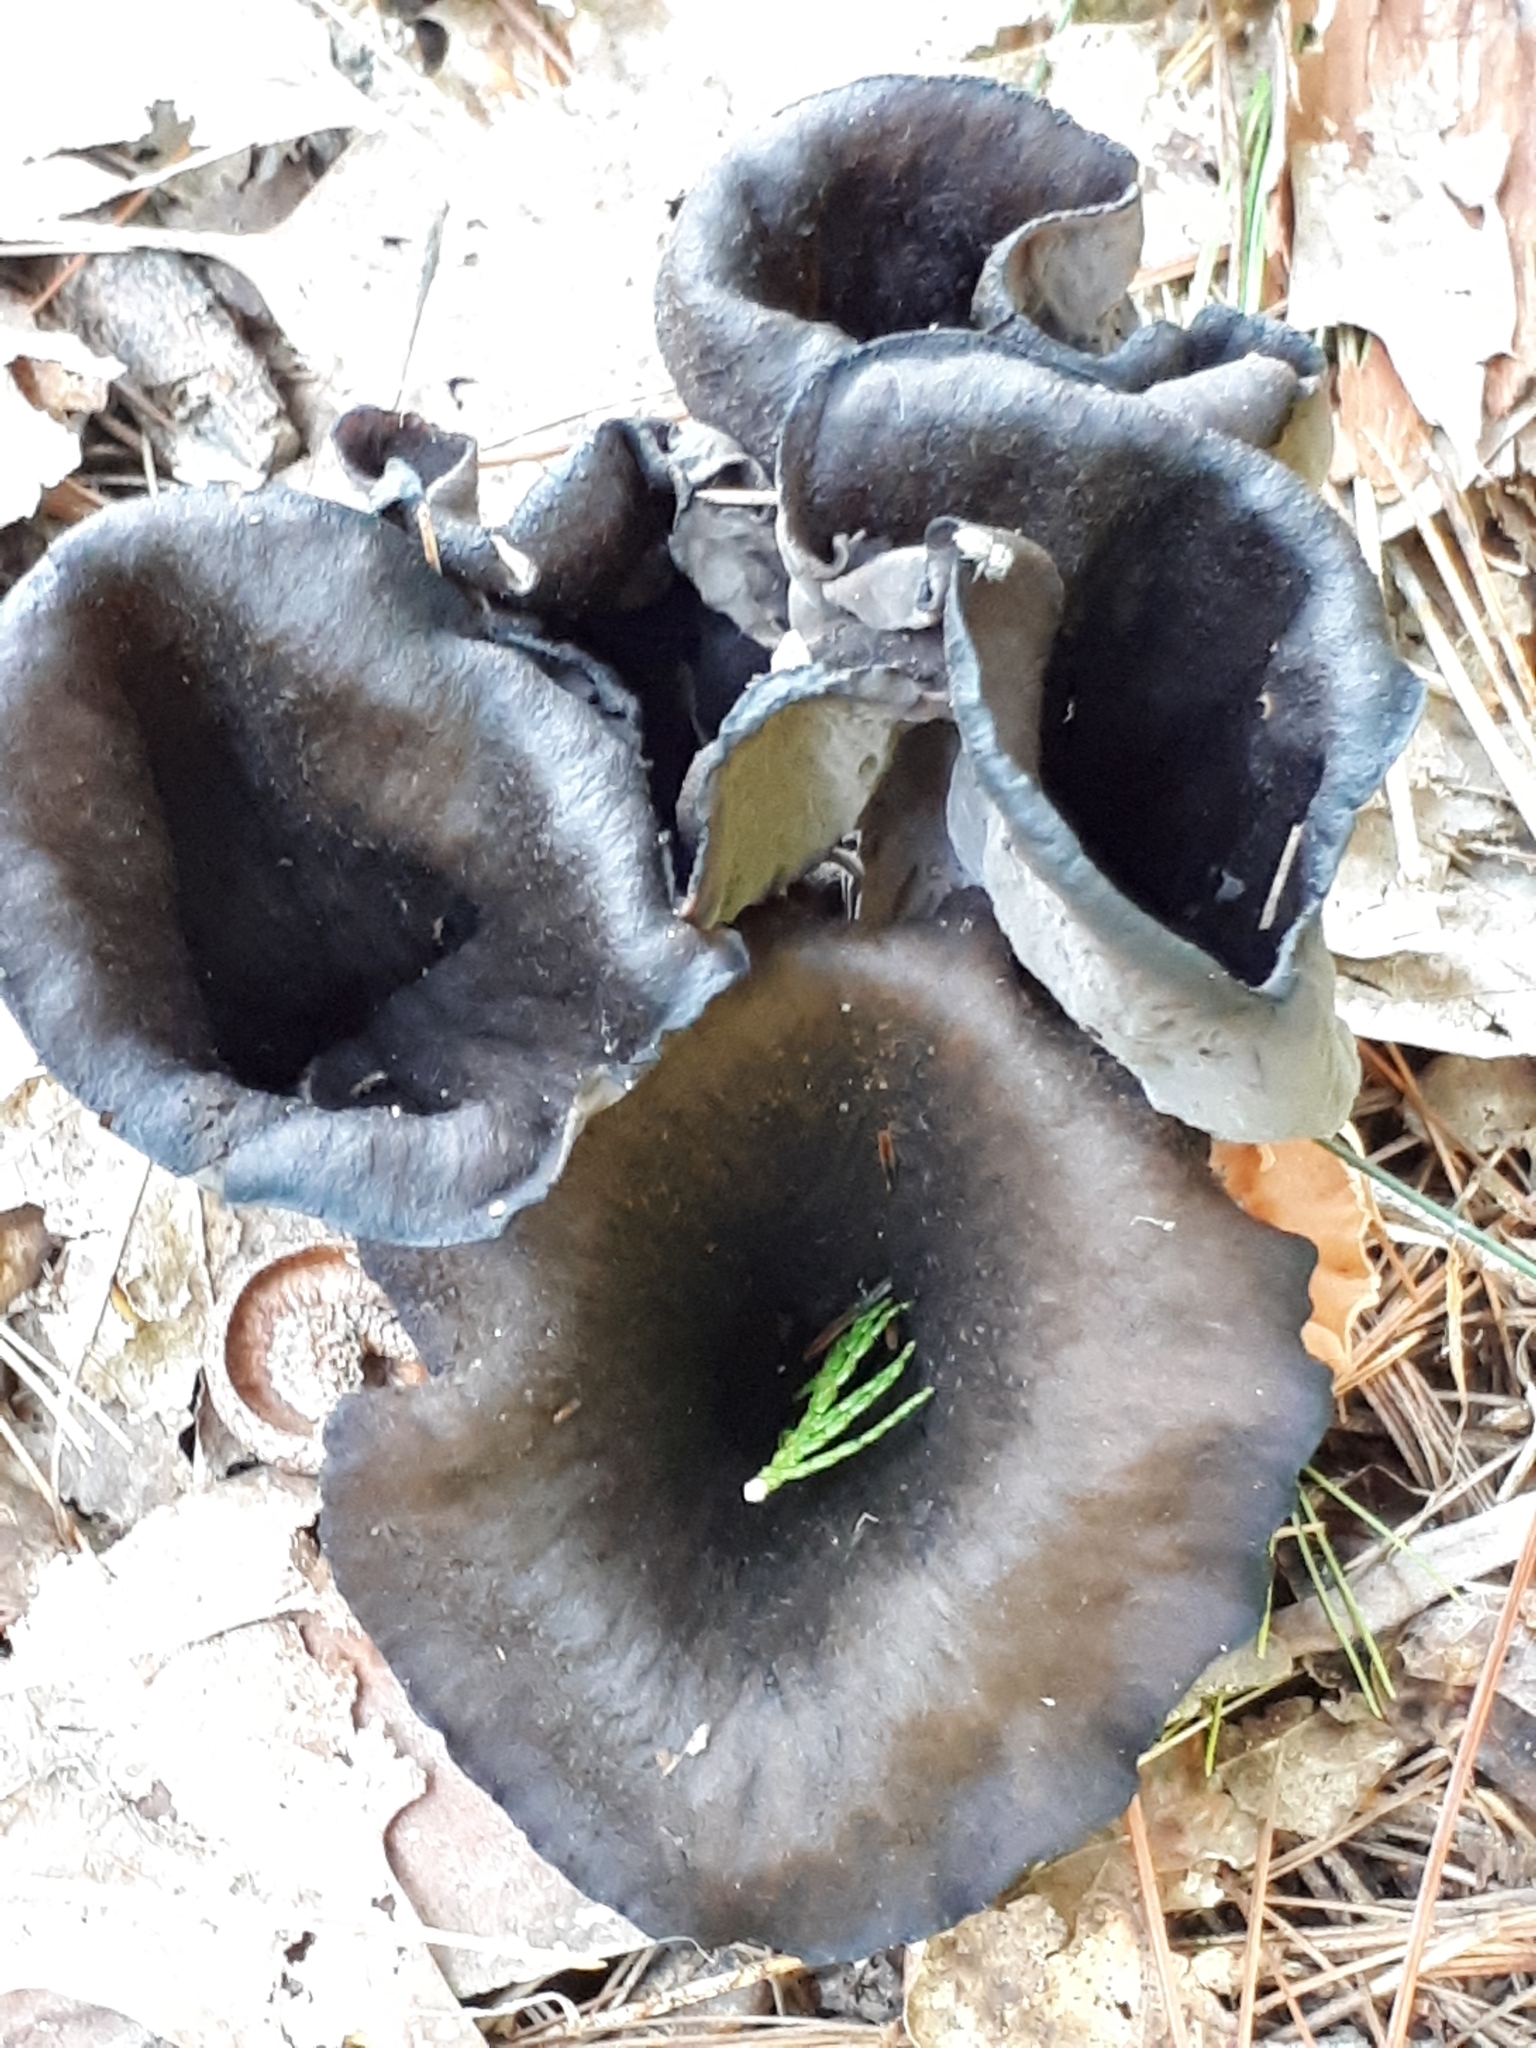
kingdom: Fungi
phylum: Basidiomycota
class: Agaricomycetes
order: Cantharellales
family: Hydnaceae
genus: Craterellus
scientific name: Craterellus cornucopioides
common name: Horn of plenty
